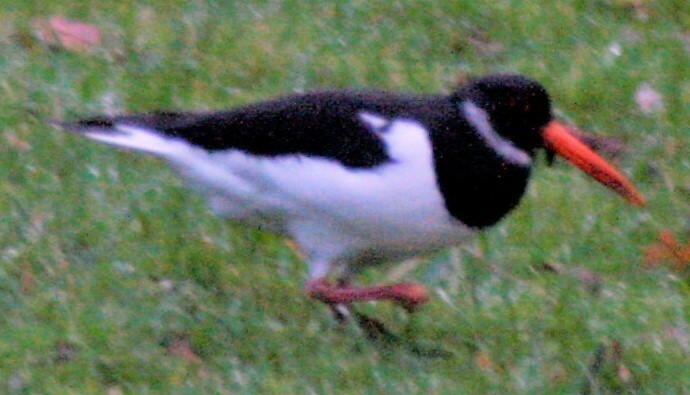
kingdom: Animalia
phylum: Chordata
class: Aves
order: Charadriiformes
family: Haematopodidae
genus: Haematopus
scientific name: Haematopus ostralegus
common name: Eurasian oystercatcher
